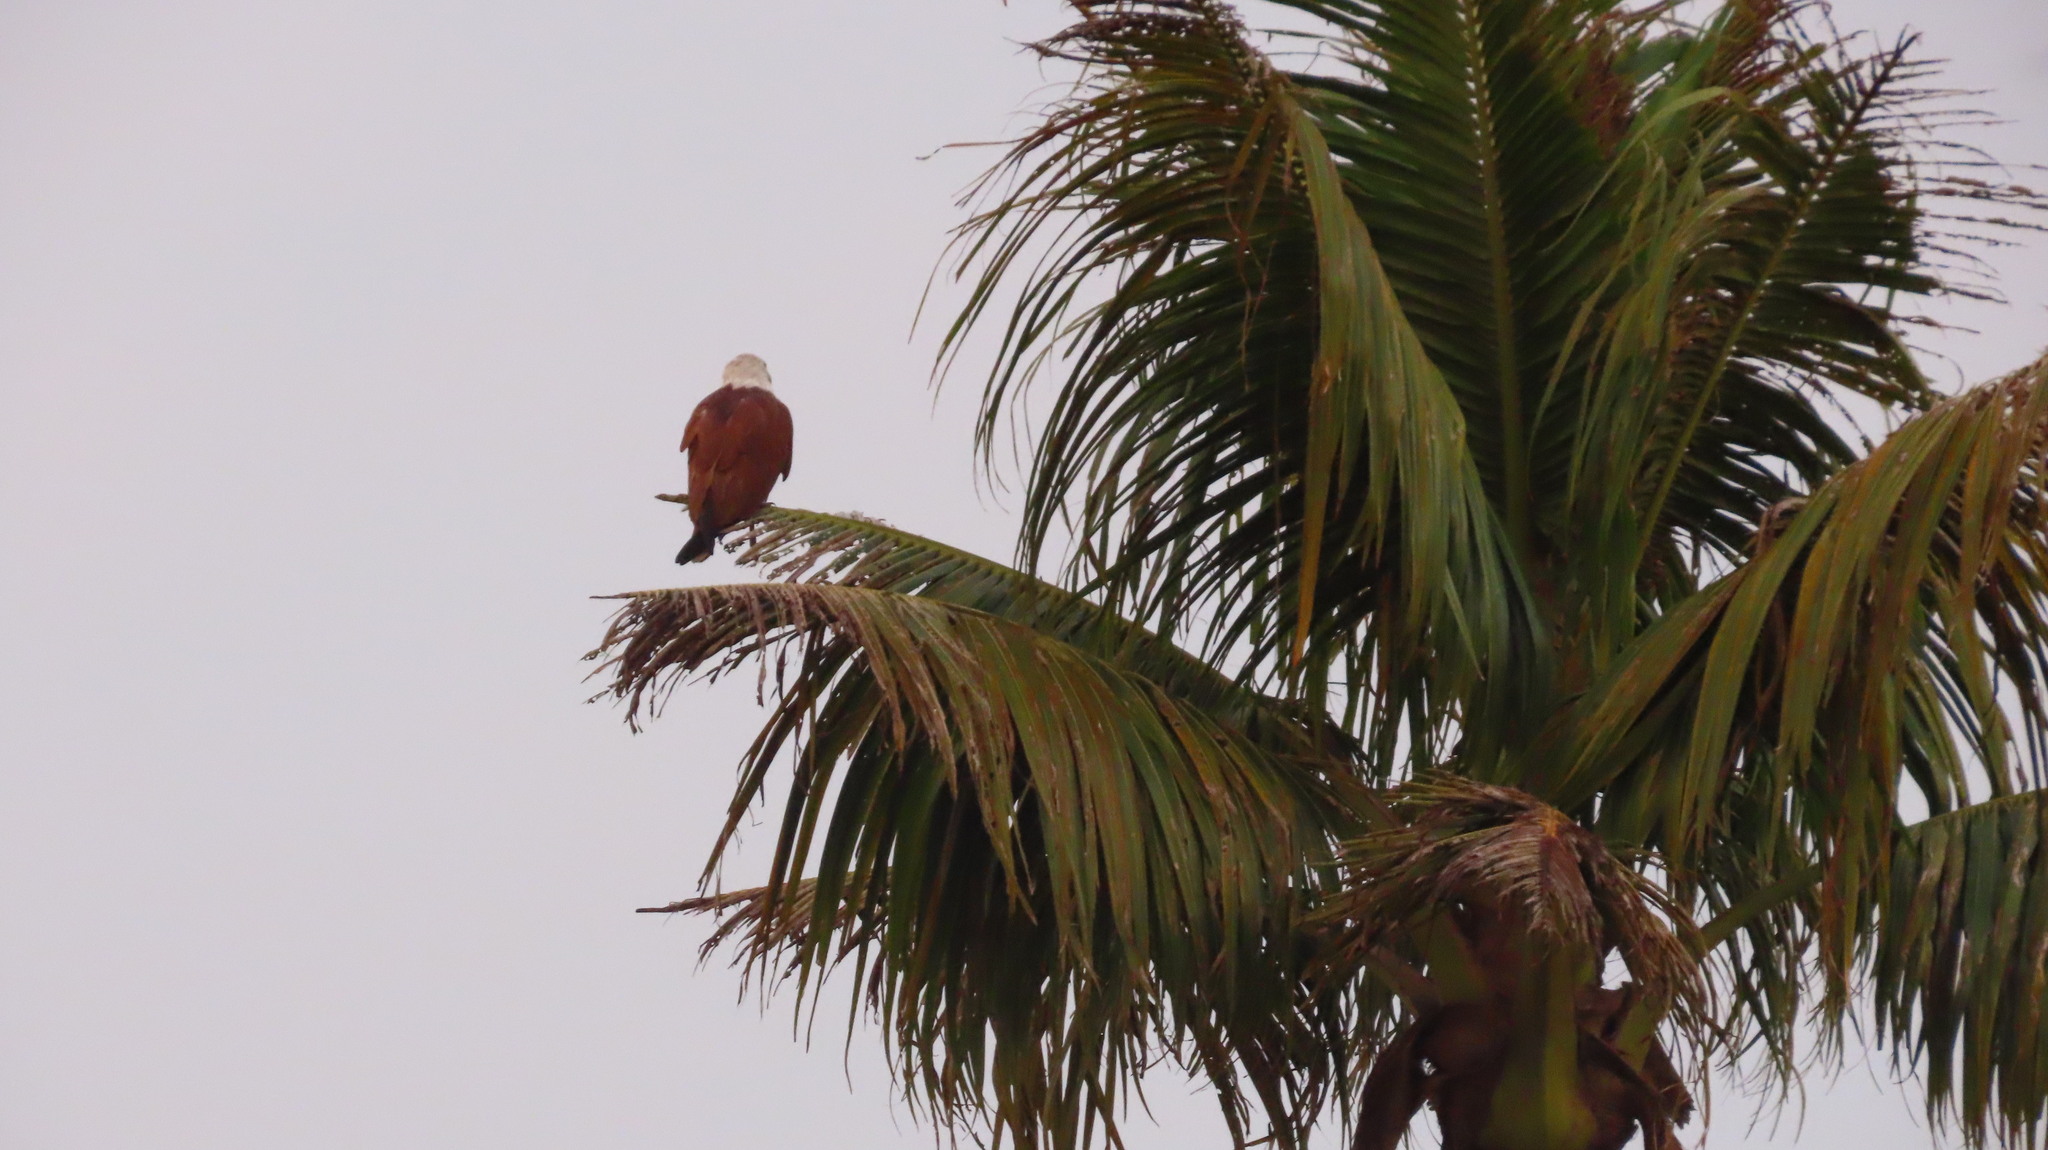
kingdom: Animalia
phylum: Chordata
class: Aves
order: Accipitriformes
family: Accipitridae
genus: Haliastur
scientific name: Haliastur indus
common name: Brahminy kite
